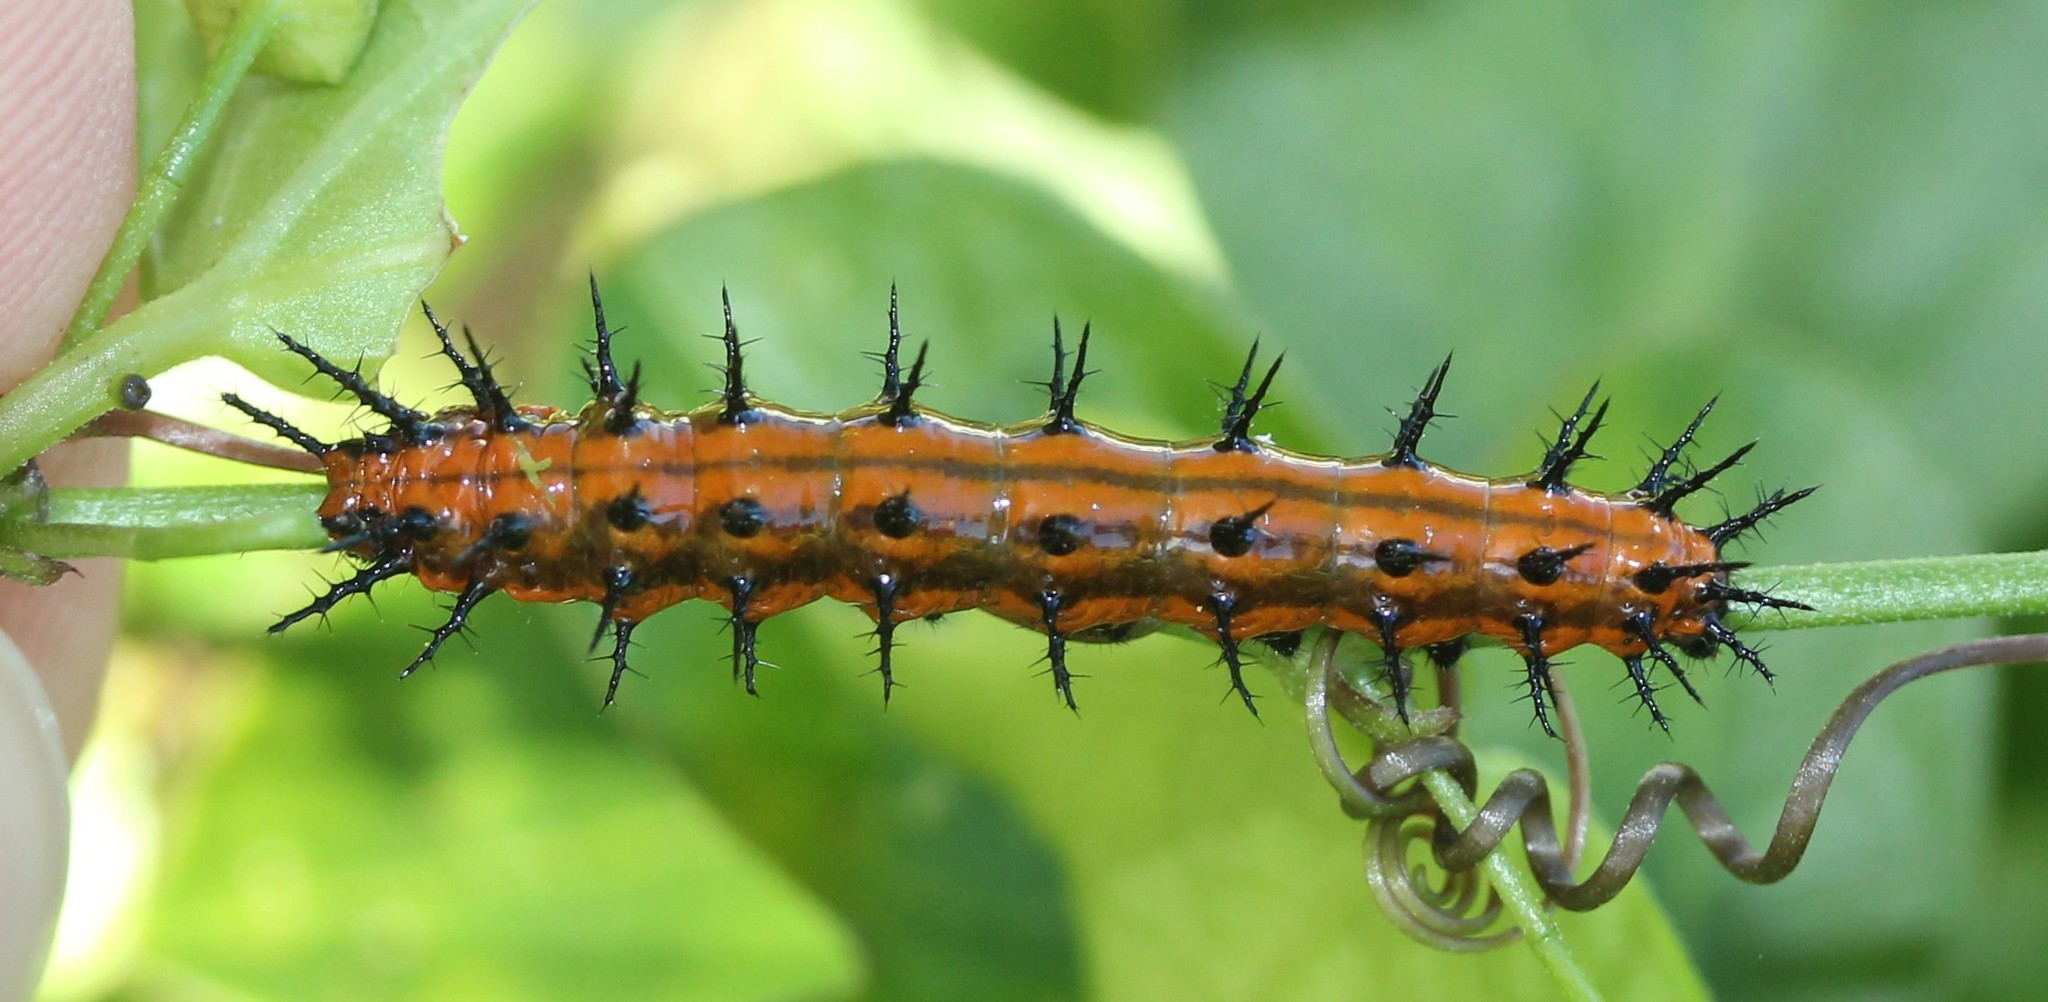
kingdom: Animalia
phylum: Arthropoda
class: Insecta
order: Lepidoptera
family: Nymphalidae
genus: Dione
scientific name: Dione vanillae
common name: Gulf fritillary
